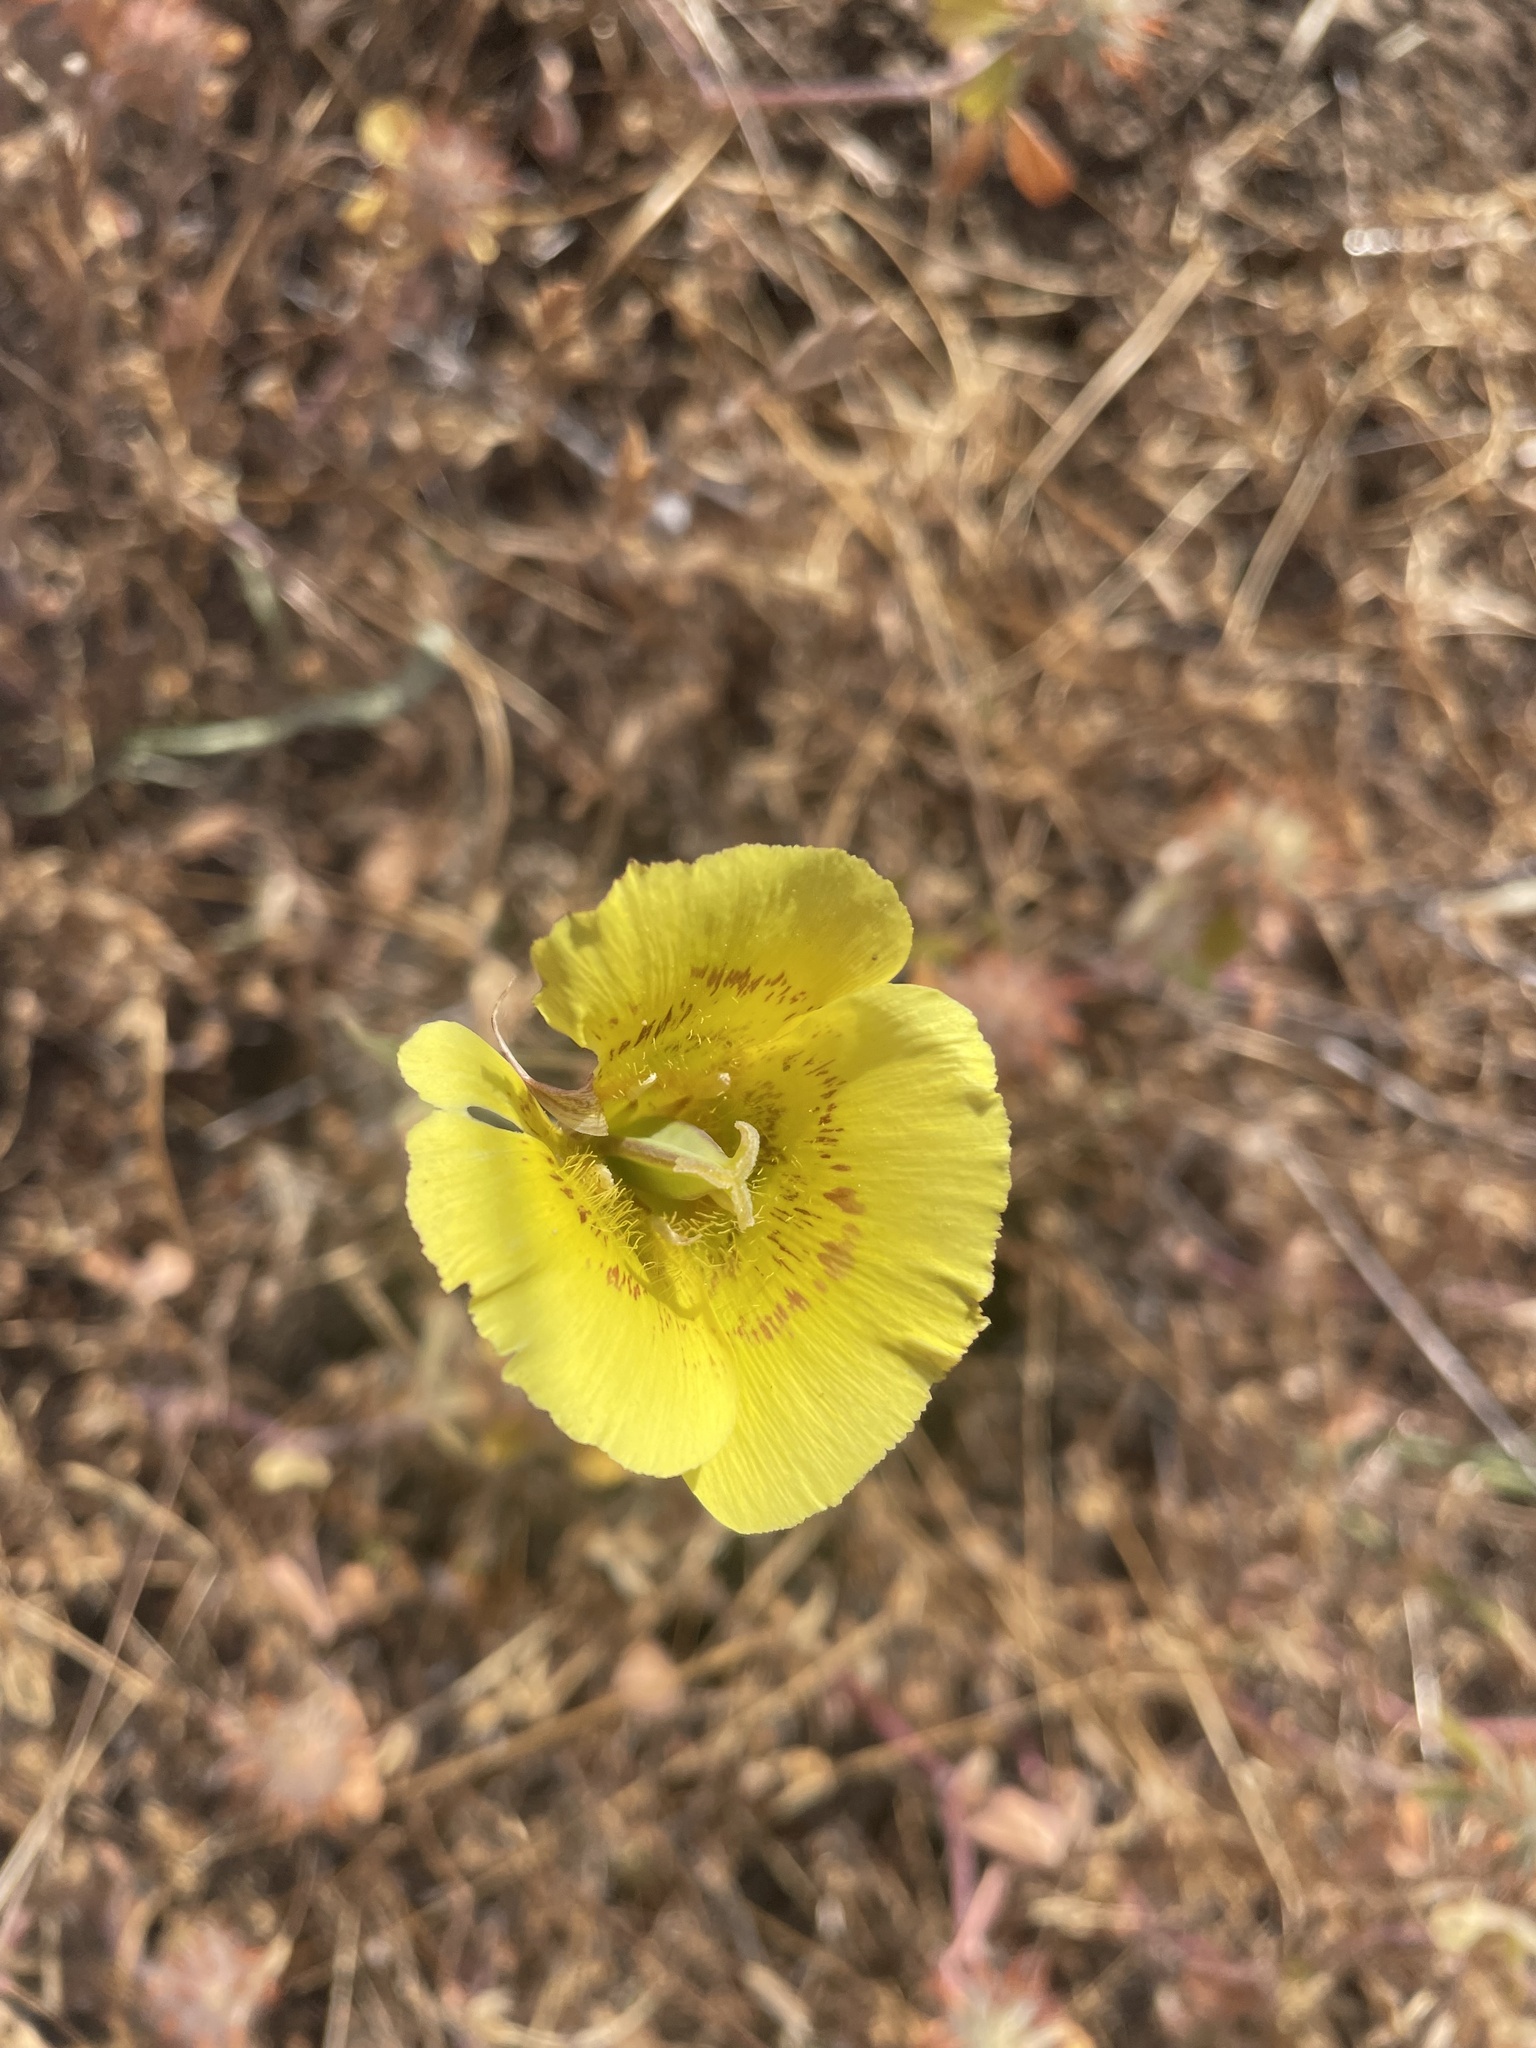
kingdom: Plantae
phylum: Tracheophyta
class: Liliopsida
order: Liliales
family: Liliaceae
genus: Calochortus
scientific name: Calochortus luteus
